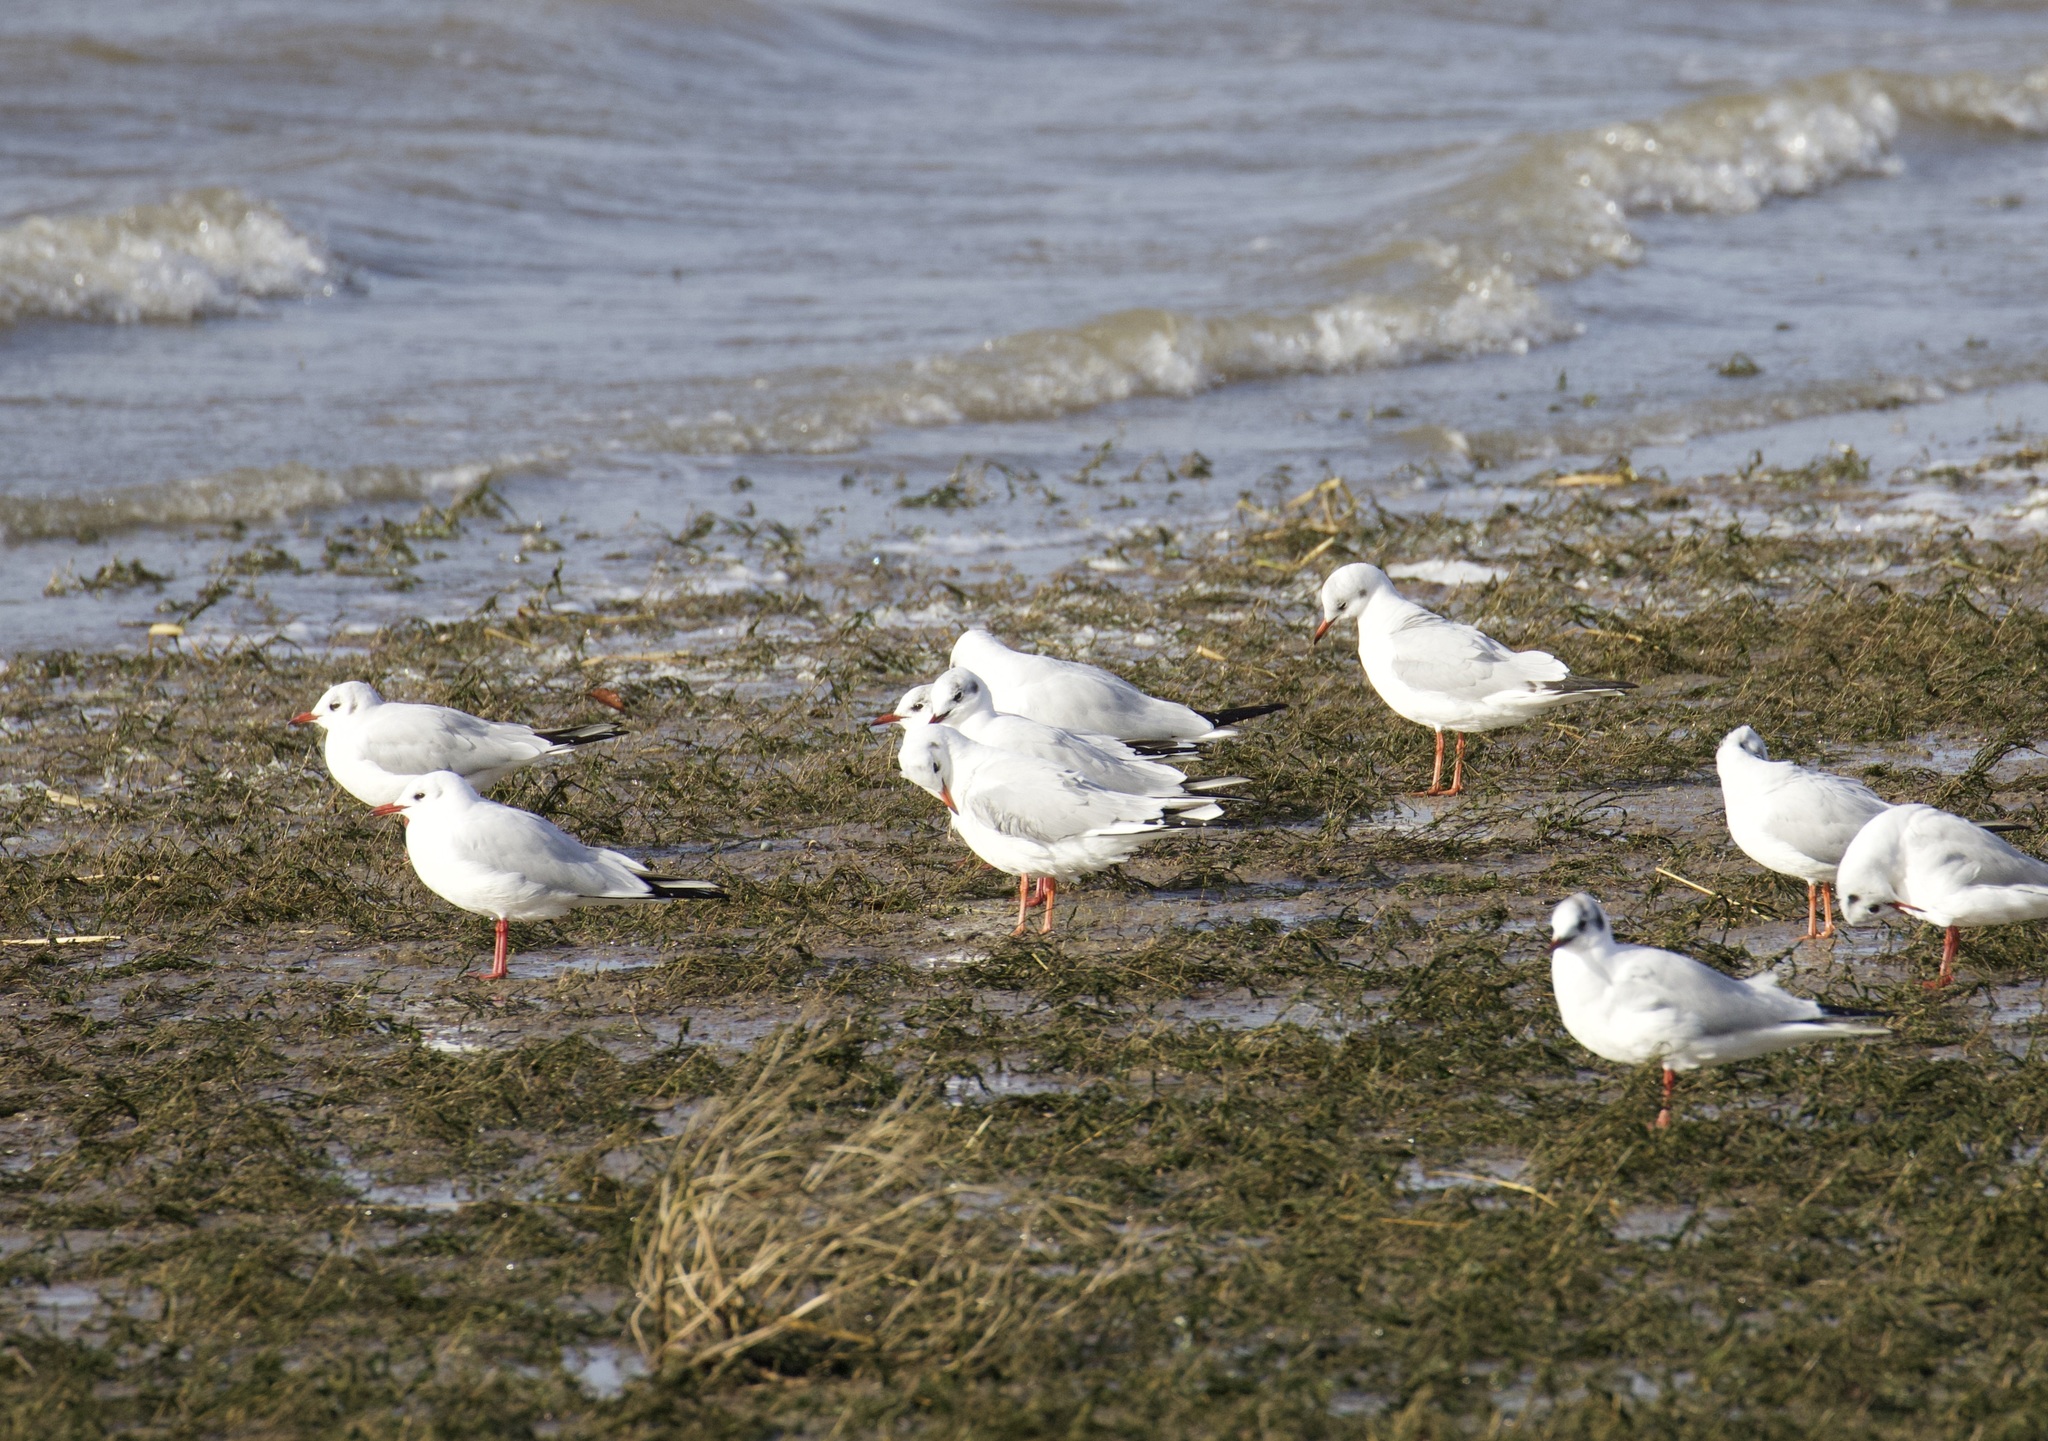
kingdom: Animalia
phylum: Chordata
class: Aves
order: Charadriiformes
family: Laridae
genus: Chroicocephalus
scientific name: Chroicocephalus ridibundus
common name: Black-headed gull
